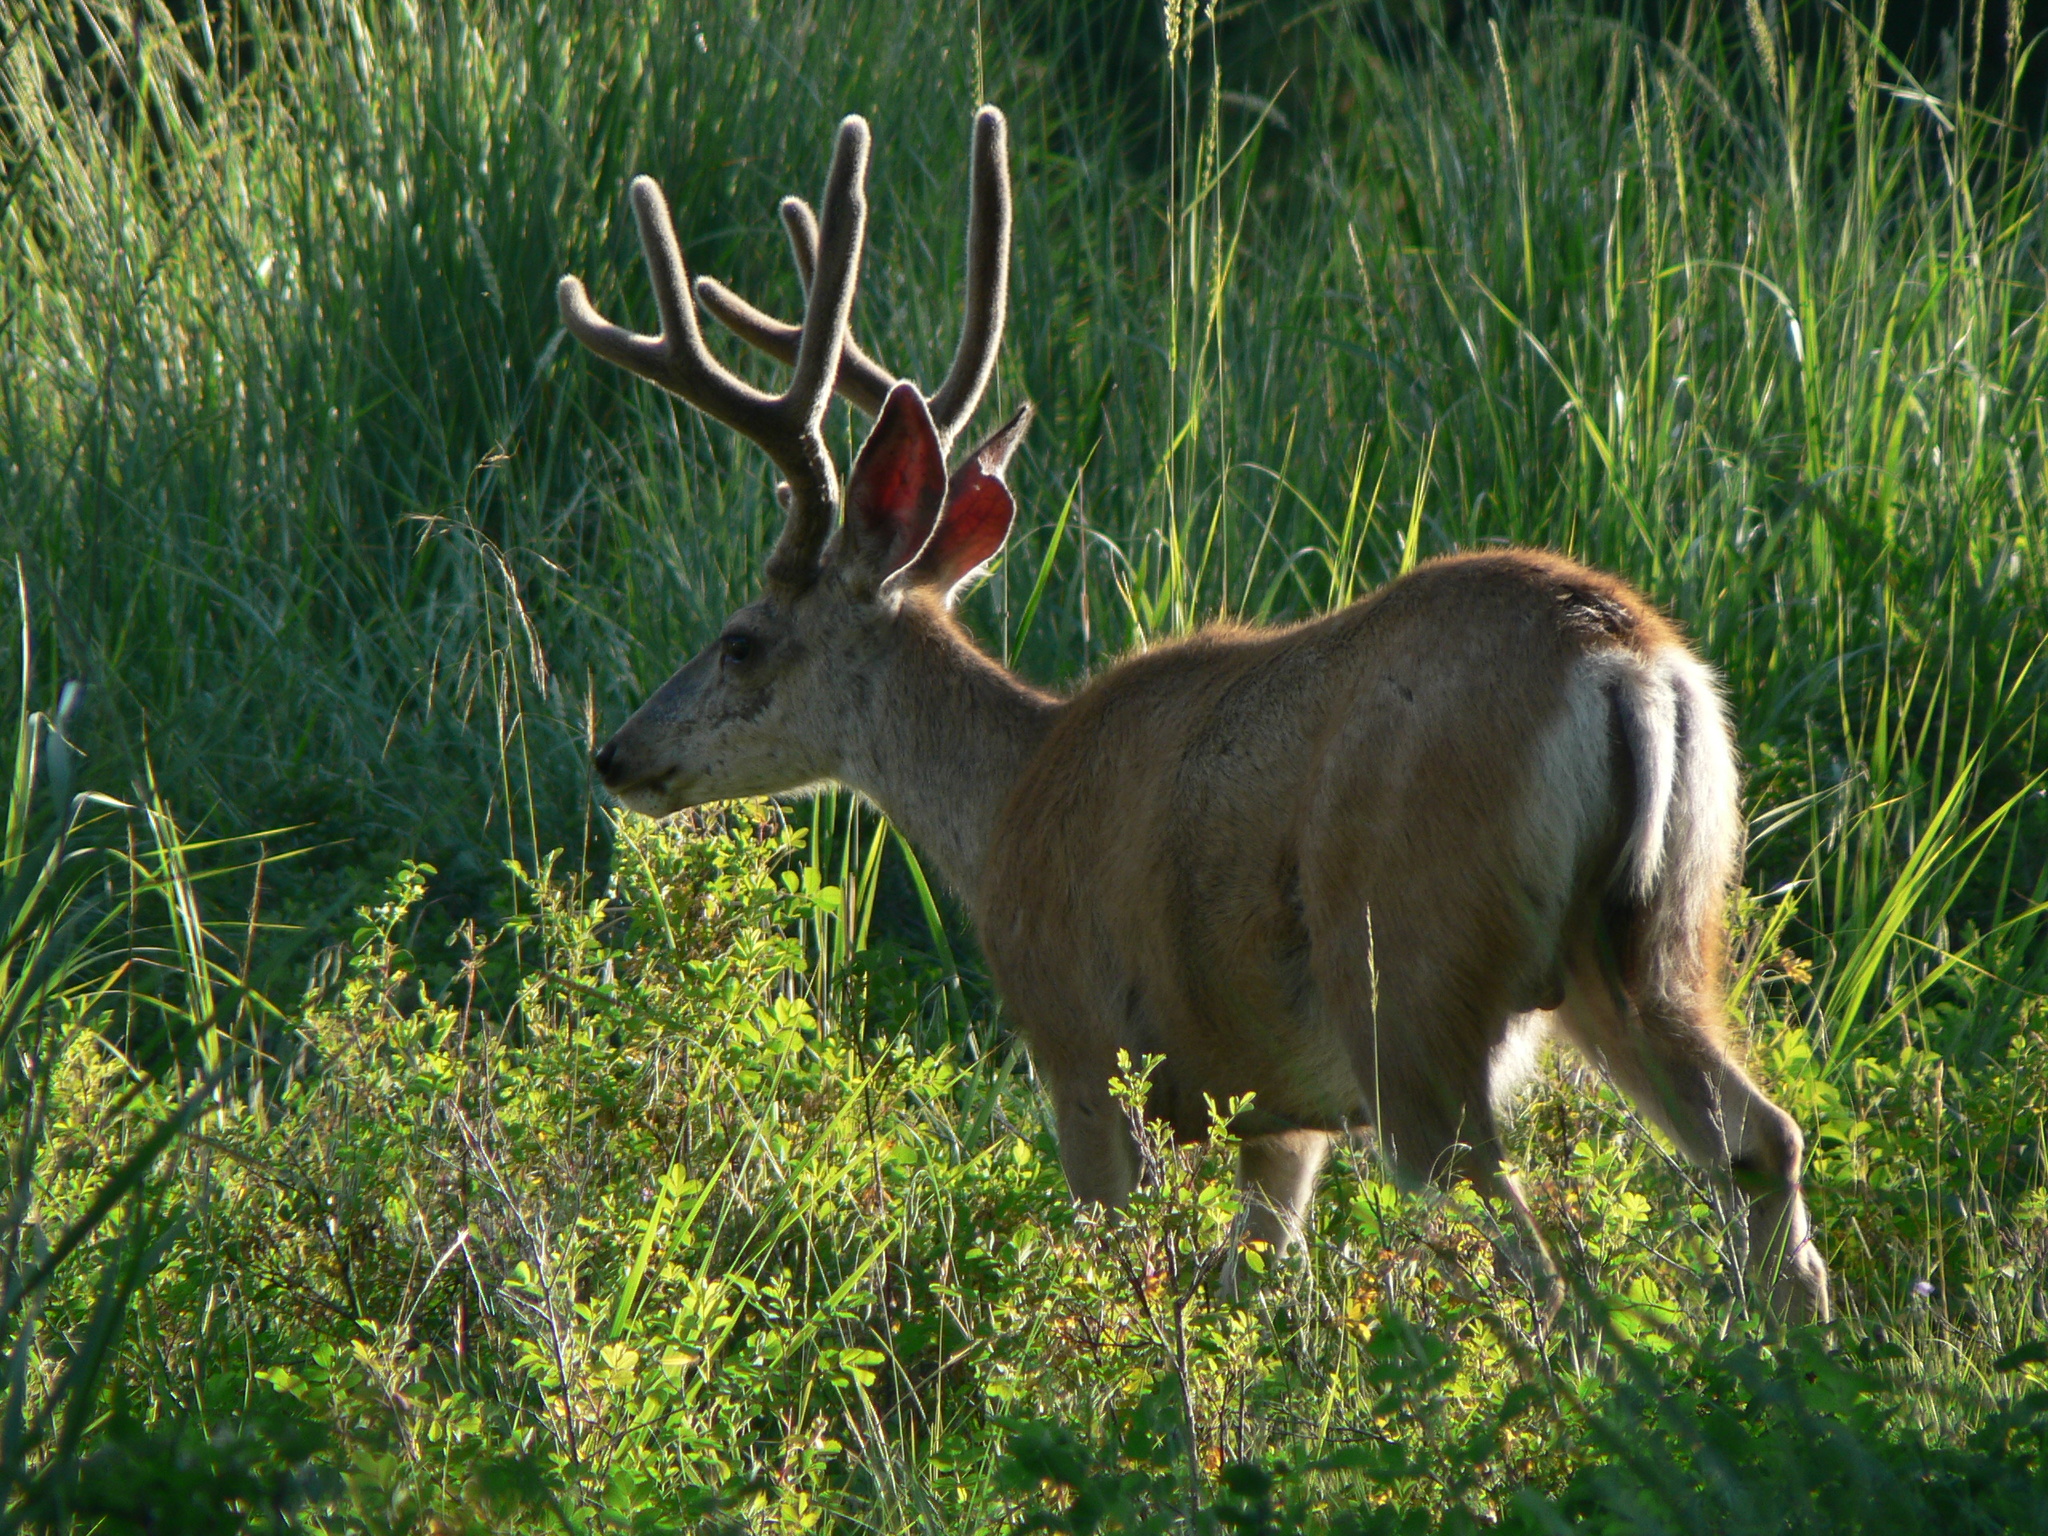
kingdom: Animalia
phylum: Chordata
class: Mammalia
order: Artiodactyla
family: Cervidae
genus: Odocoileus
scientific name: Odocoileus hemionus
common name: Mule deer
